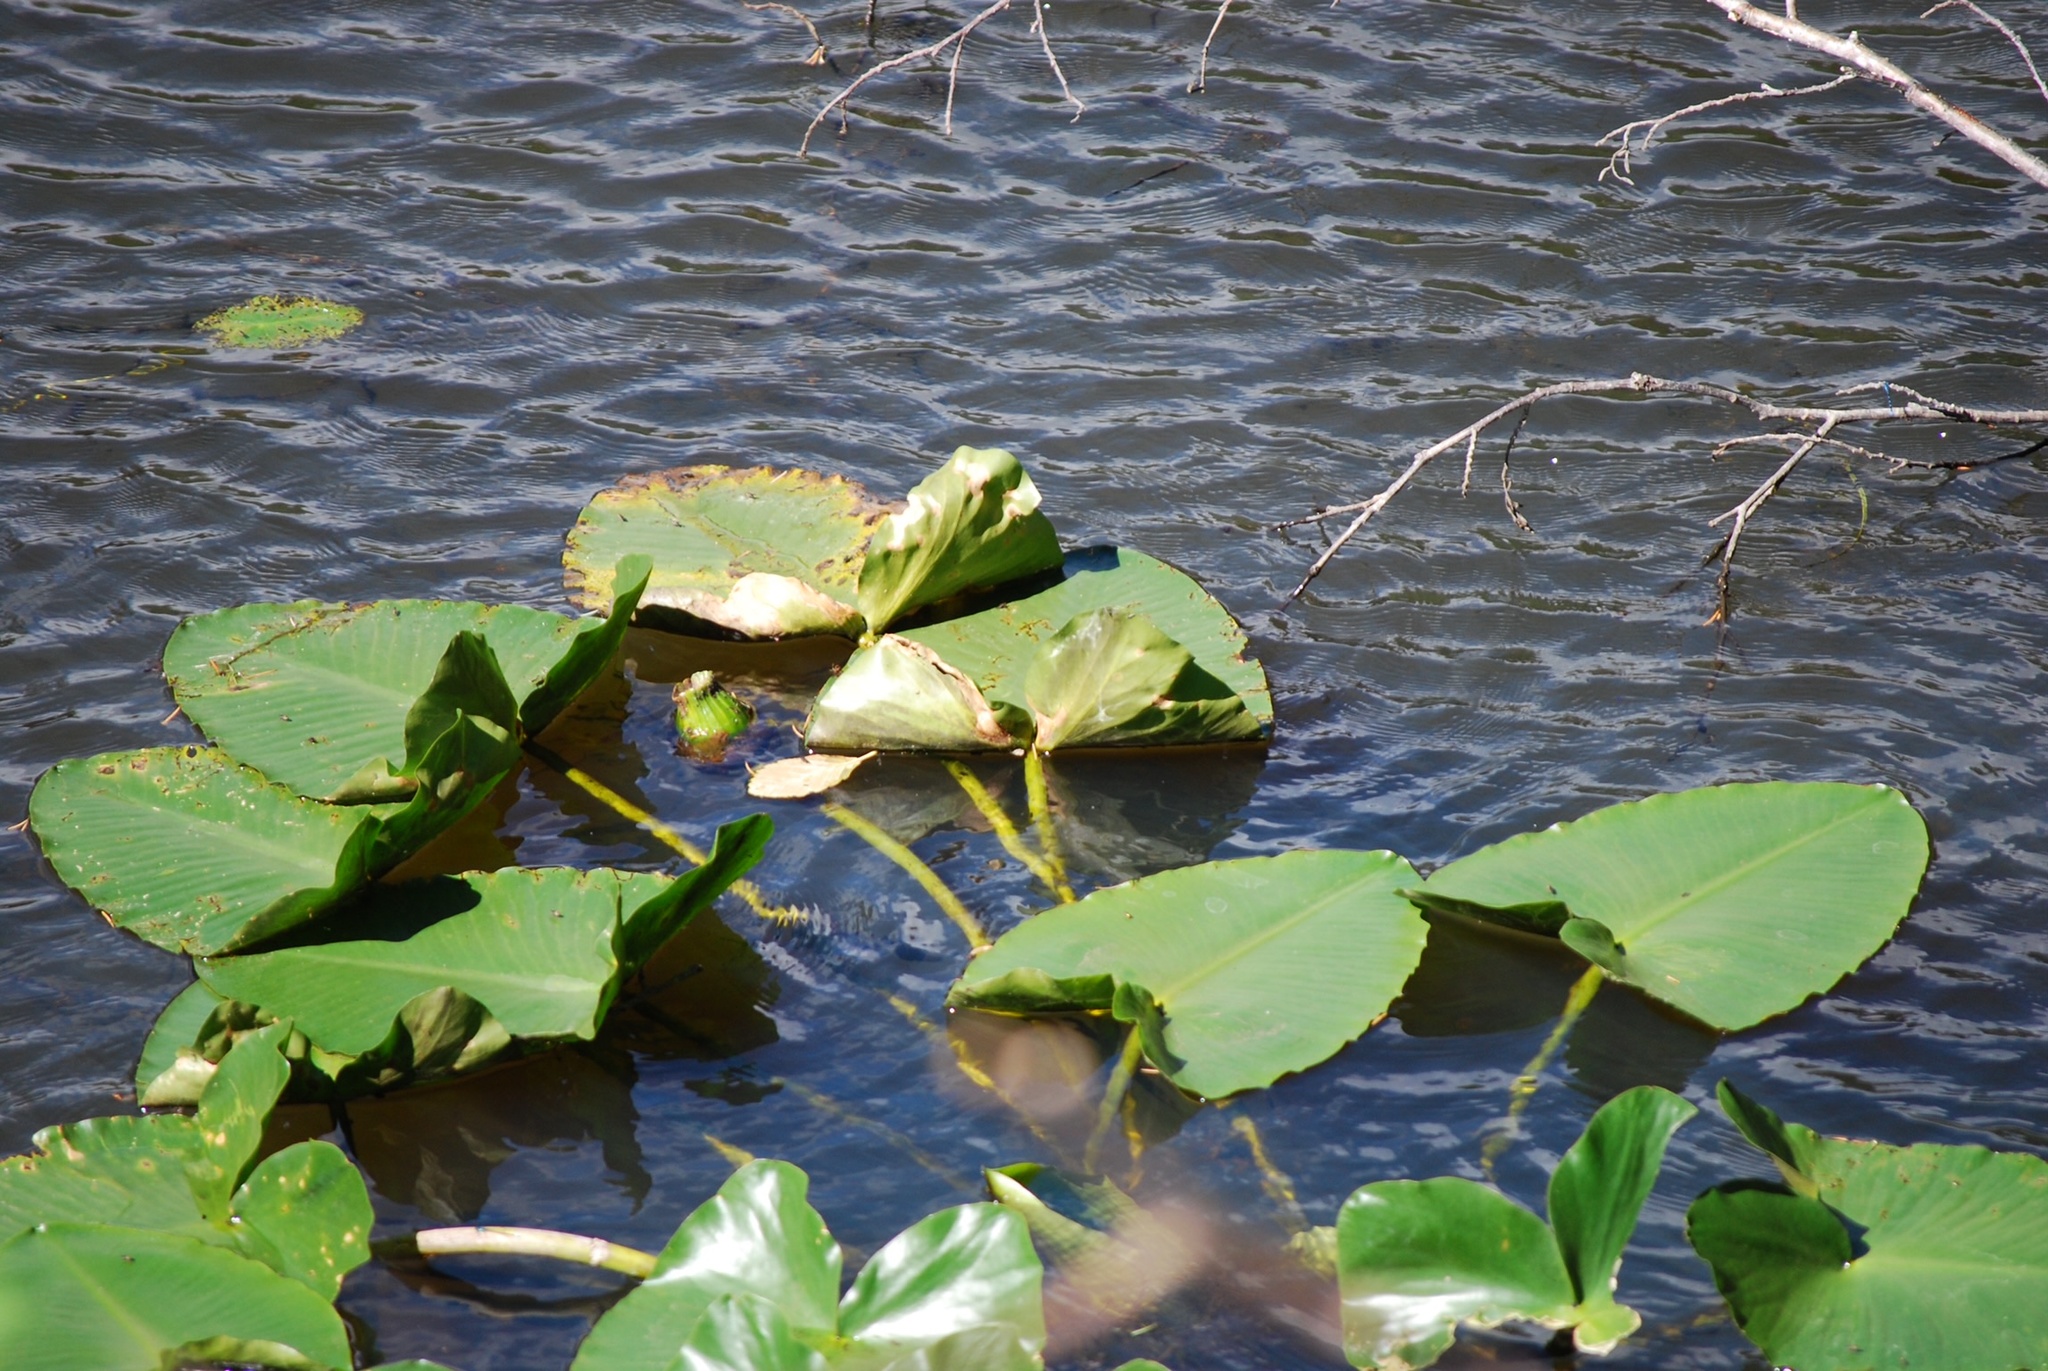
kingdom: Plantae
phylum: Tracheophyta
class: Magnoliopsida
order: Nymphaeales
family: Nymphaeaceae
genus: Nuphar
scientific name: Nuphar polysepala
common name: Rocky mountain cow-lily
